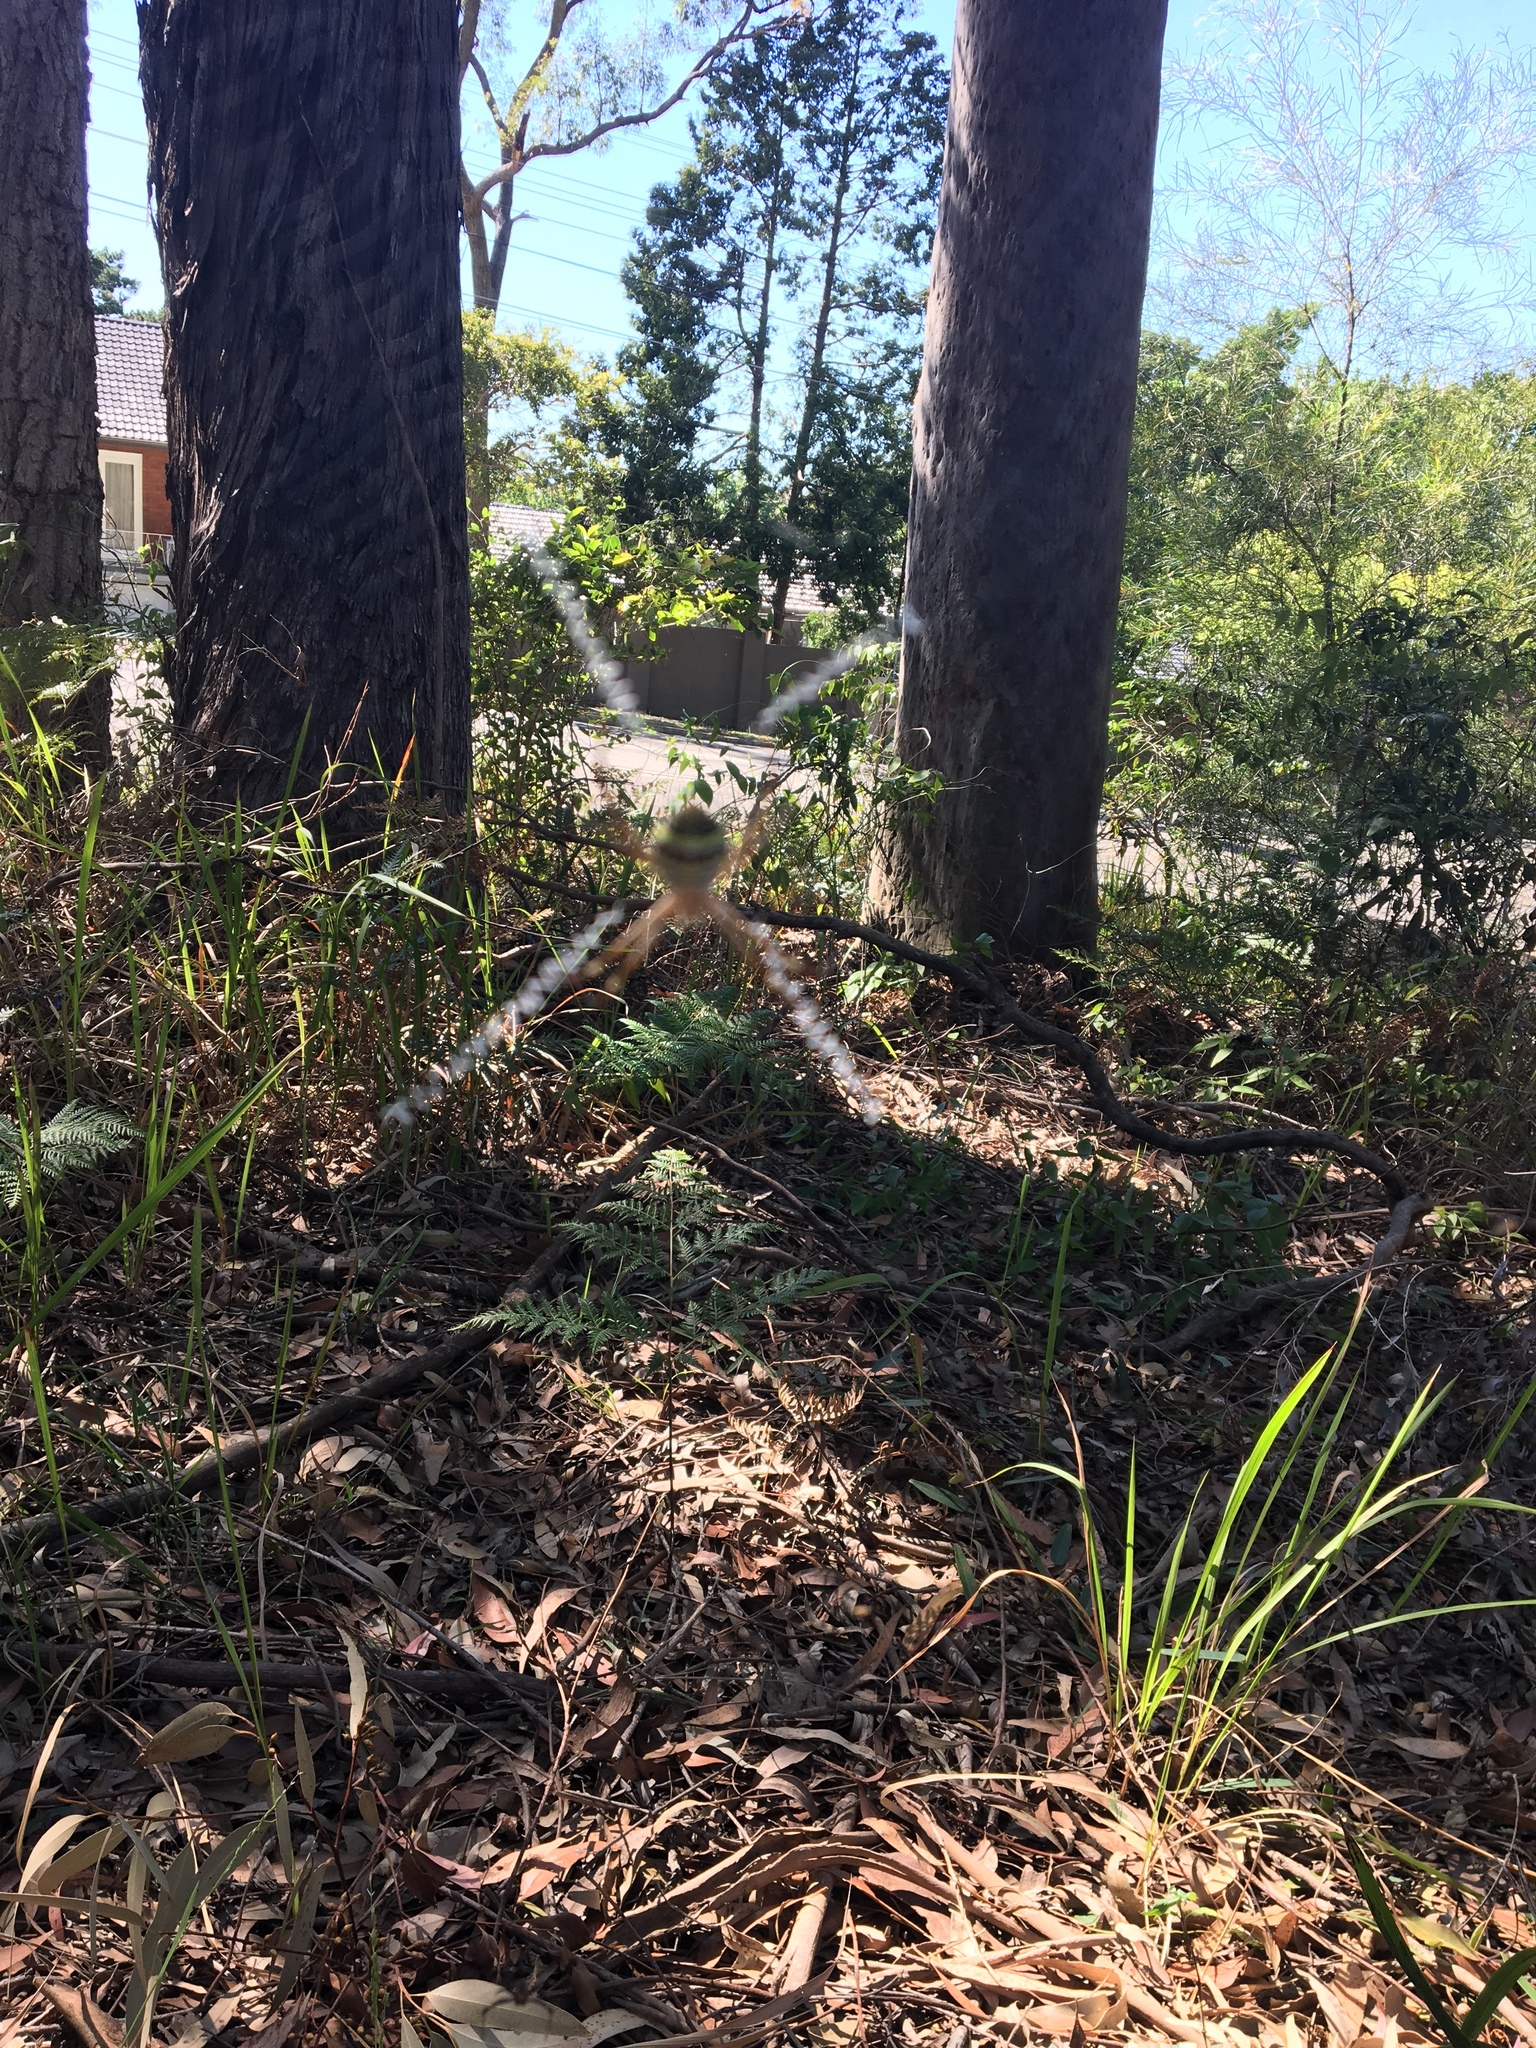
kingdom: Animalia
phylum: Arthropoda
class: Arachnida
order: Araneae
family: Araneidae
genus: Argiope
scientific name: Argiope keyserlingi
